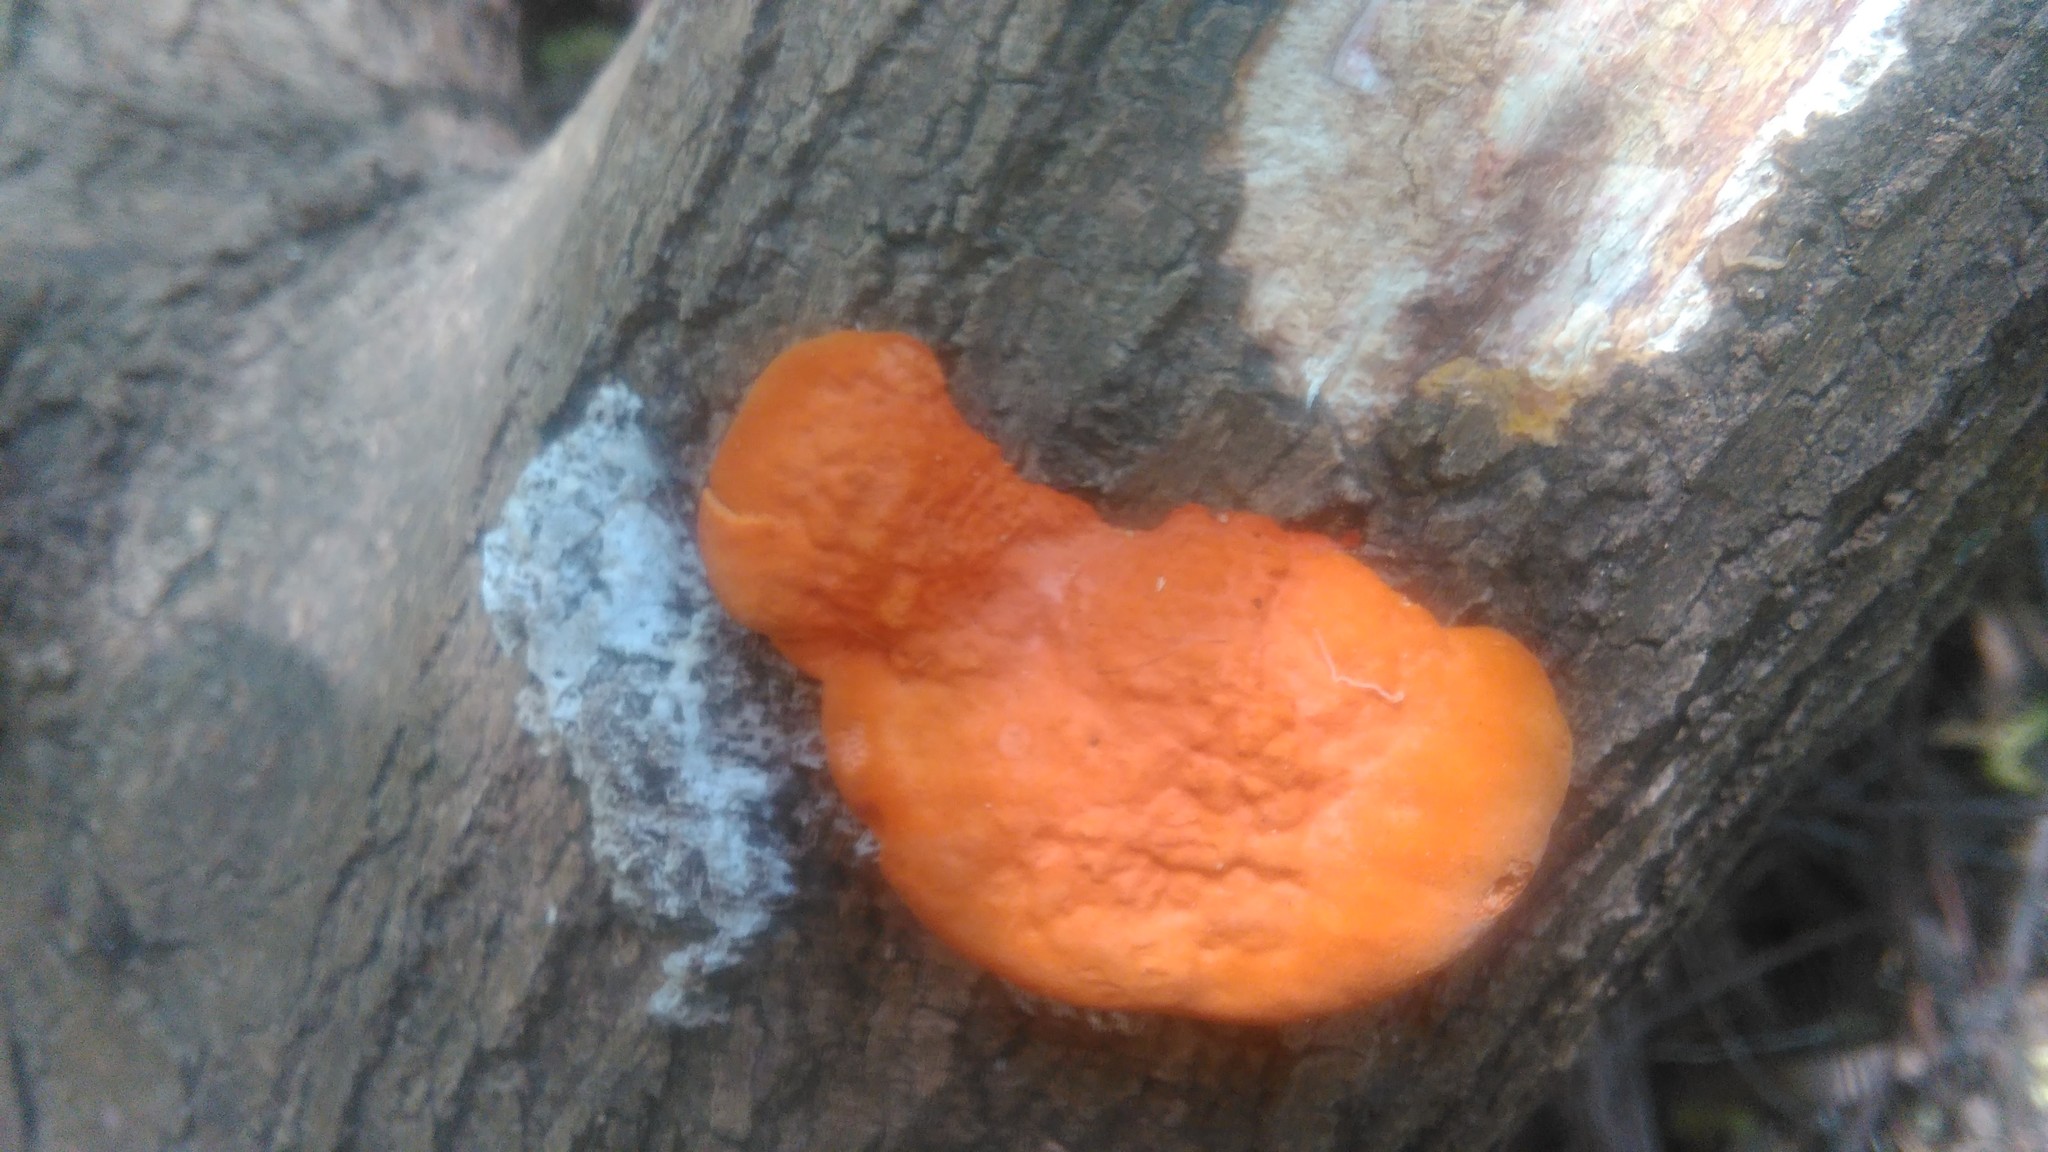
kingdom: Fungi
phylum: Basidiomycota
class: Agaricomycetes
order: Polyporales
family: Polyporaceae
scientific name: Polyporaceae
